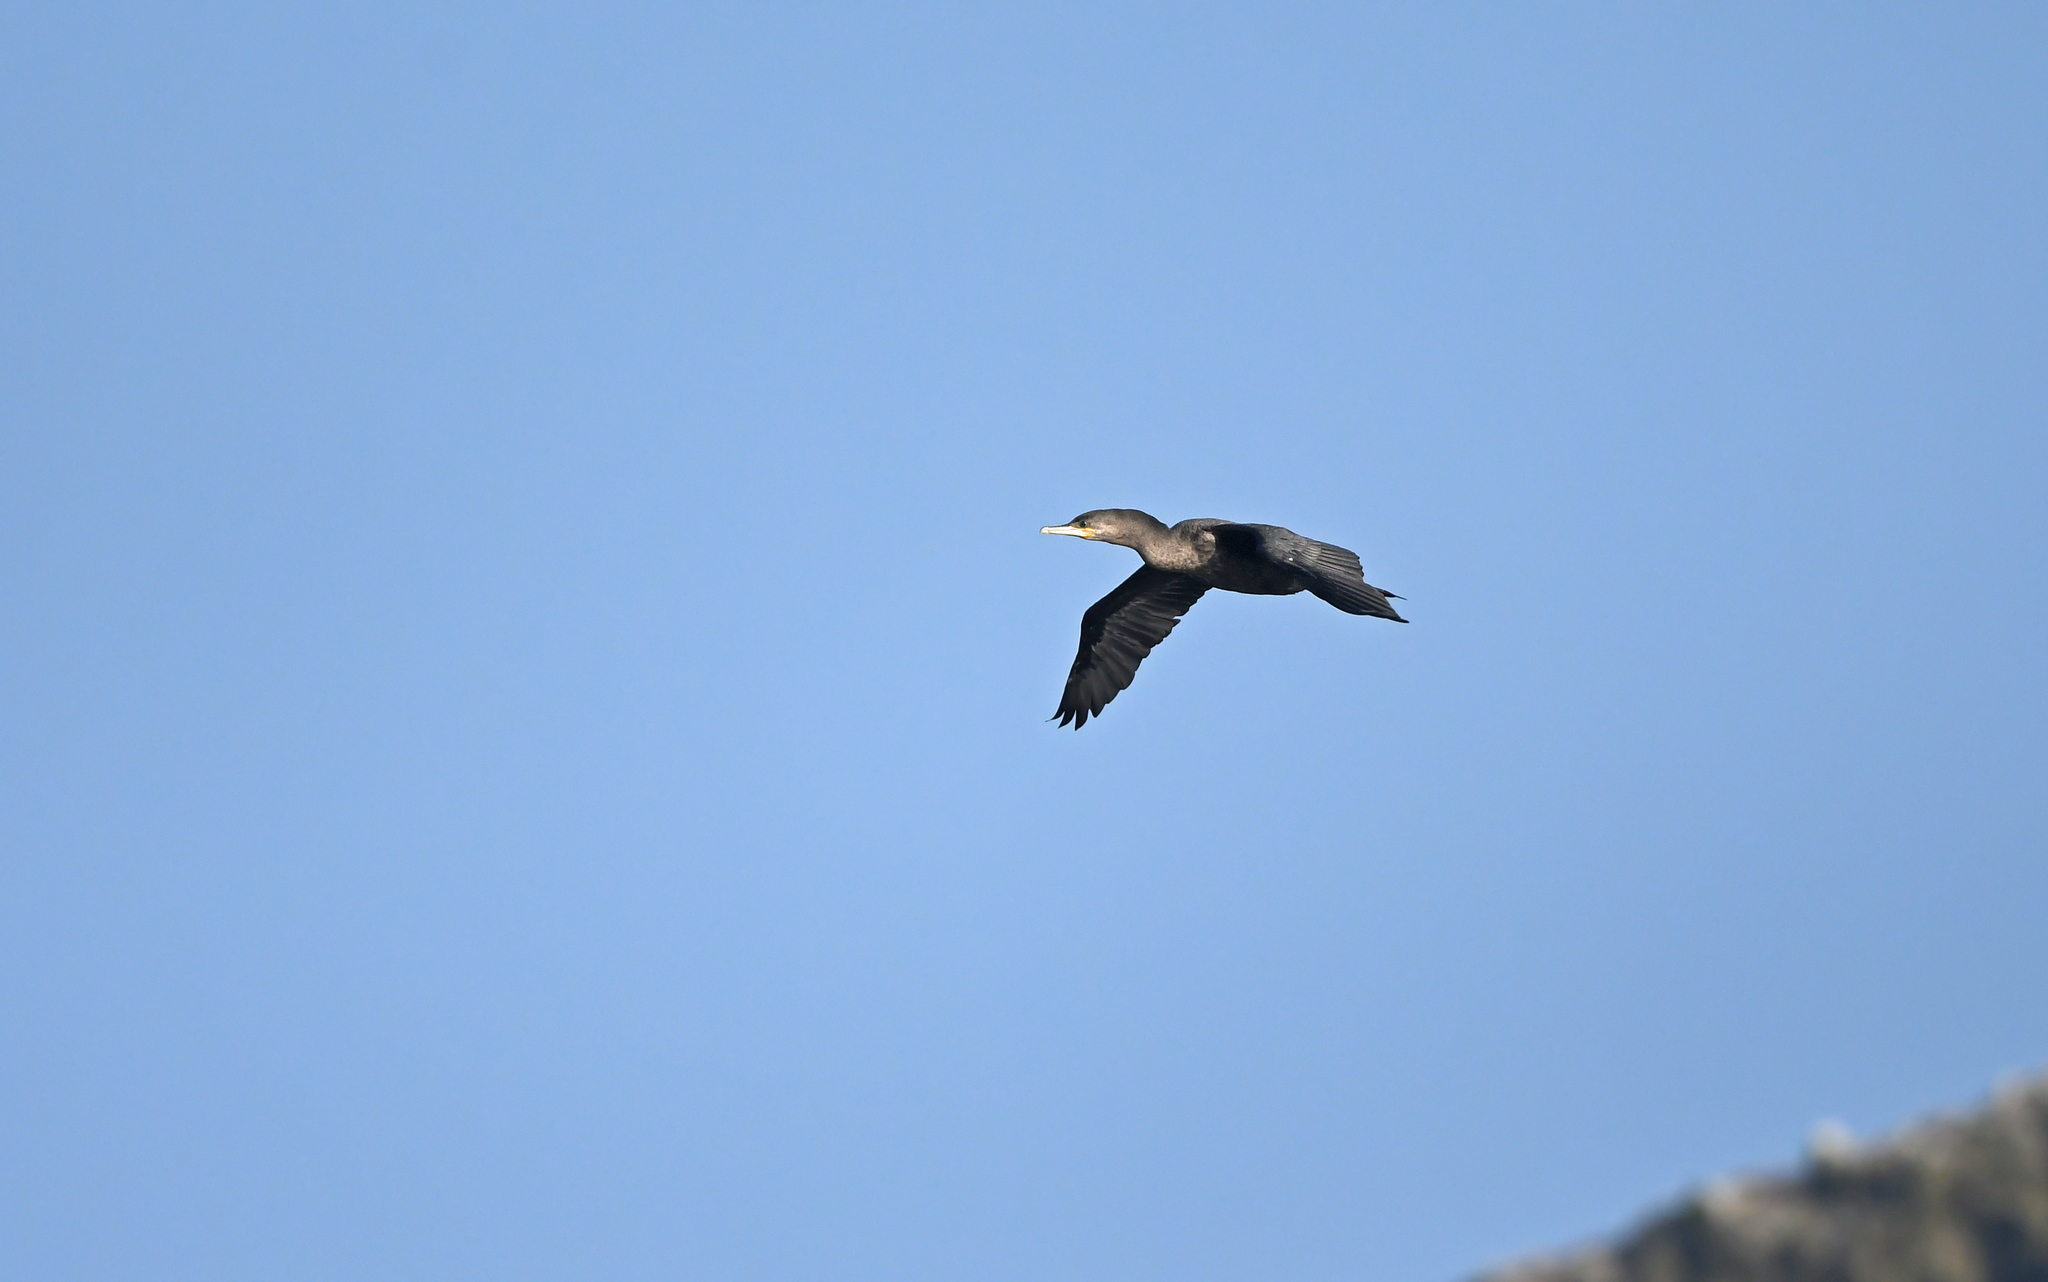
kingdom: Animalia
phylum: Chordata
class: Aves
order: Suliformes
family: Phalacrocoracidae
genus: Phalacrocorax
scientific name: Phalacrocorax brasilianus
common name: Neotropic cormorant
